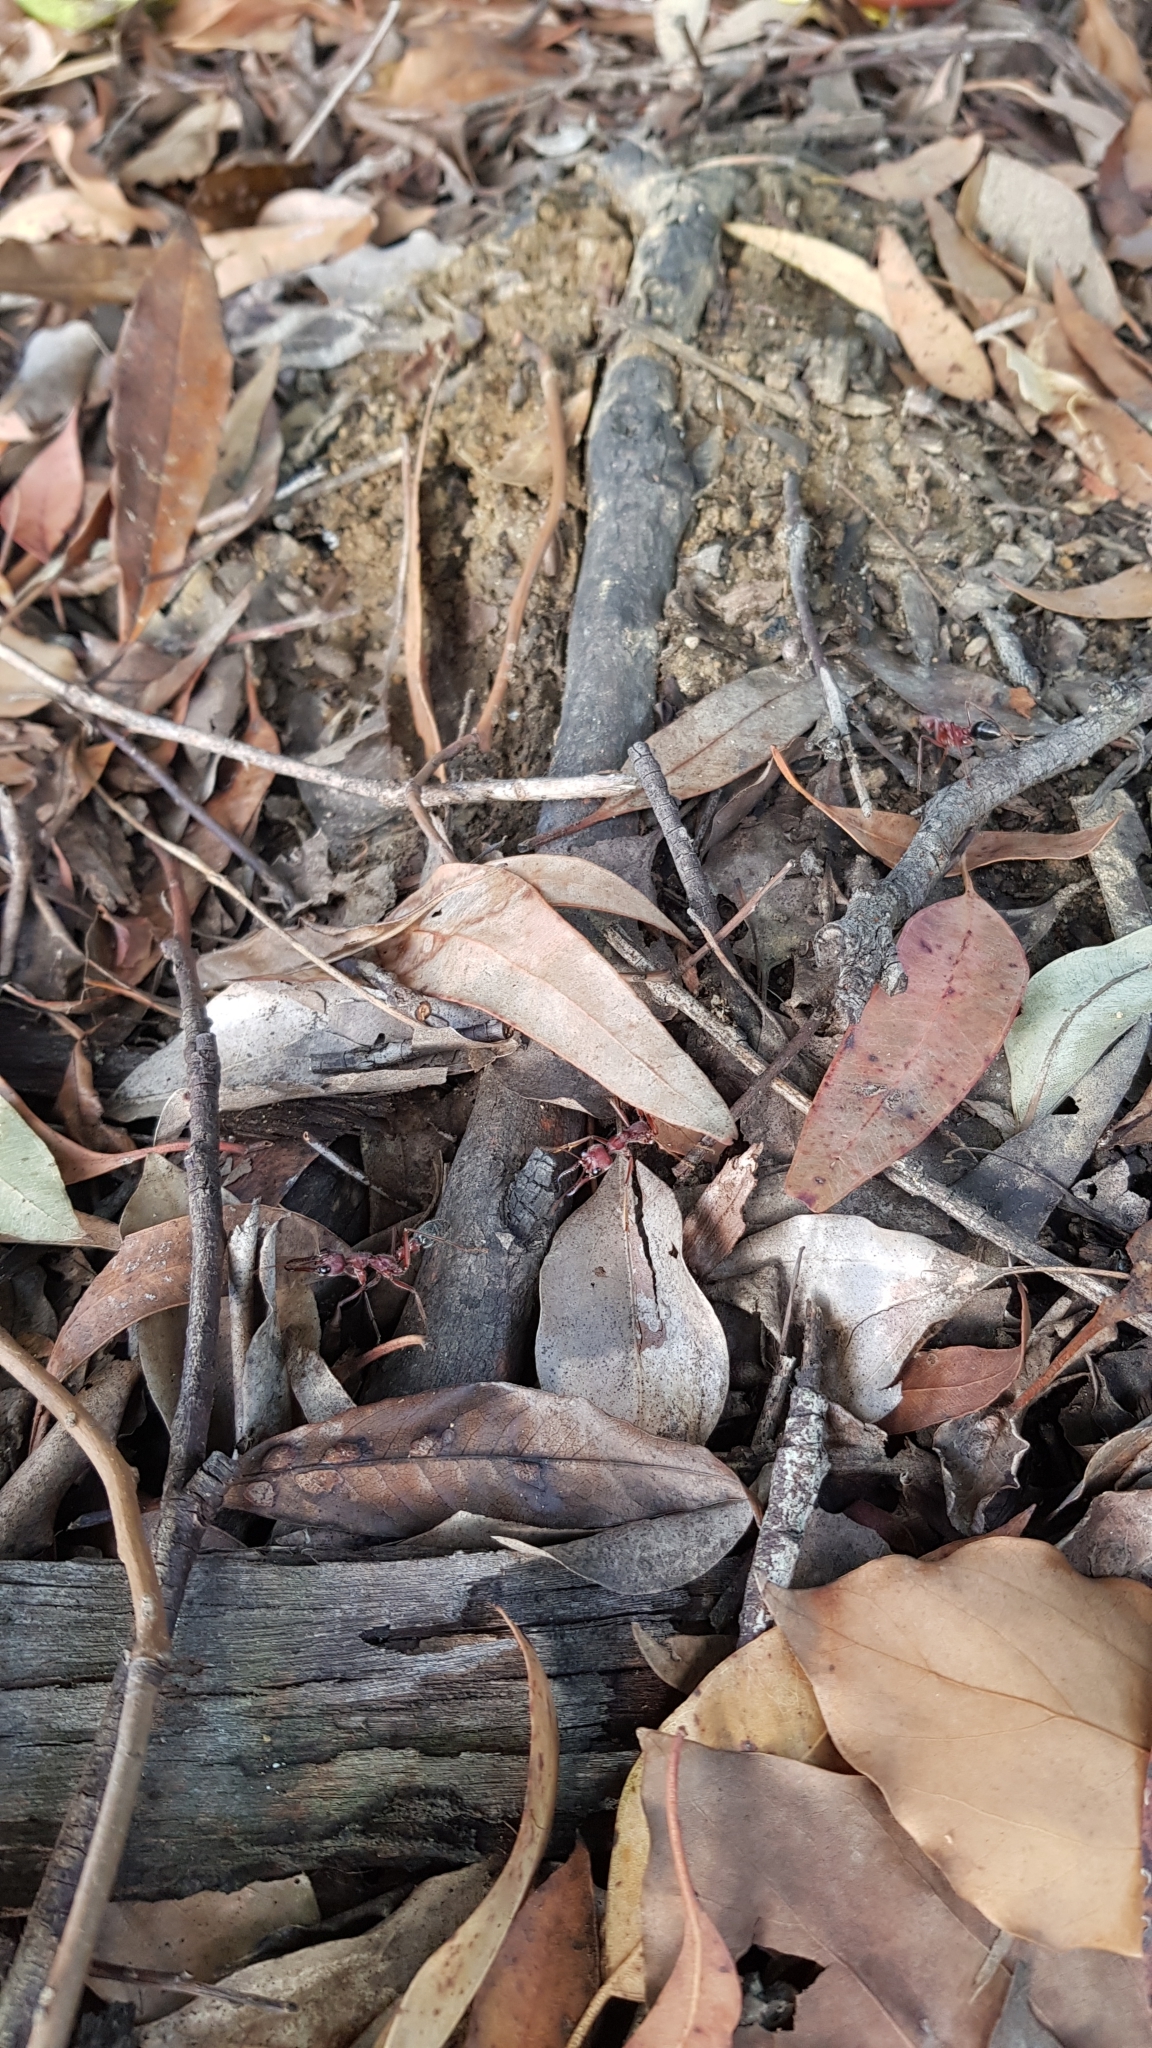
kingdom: Animalia
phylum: Arthropoda
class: Insecta
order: Hymenoptera
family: Formicidae
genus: Myrmecia
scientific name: Myrmecia brevinoda
